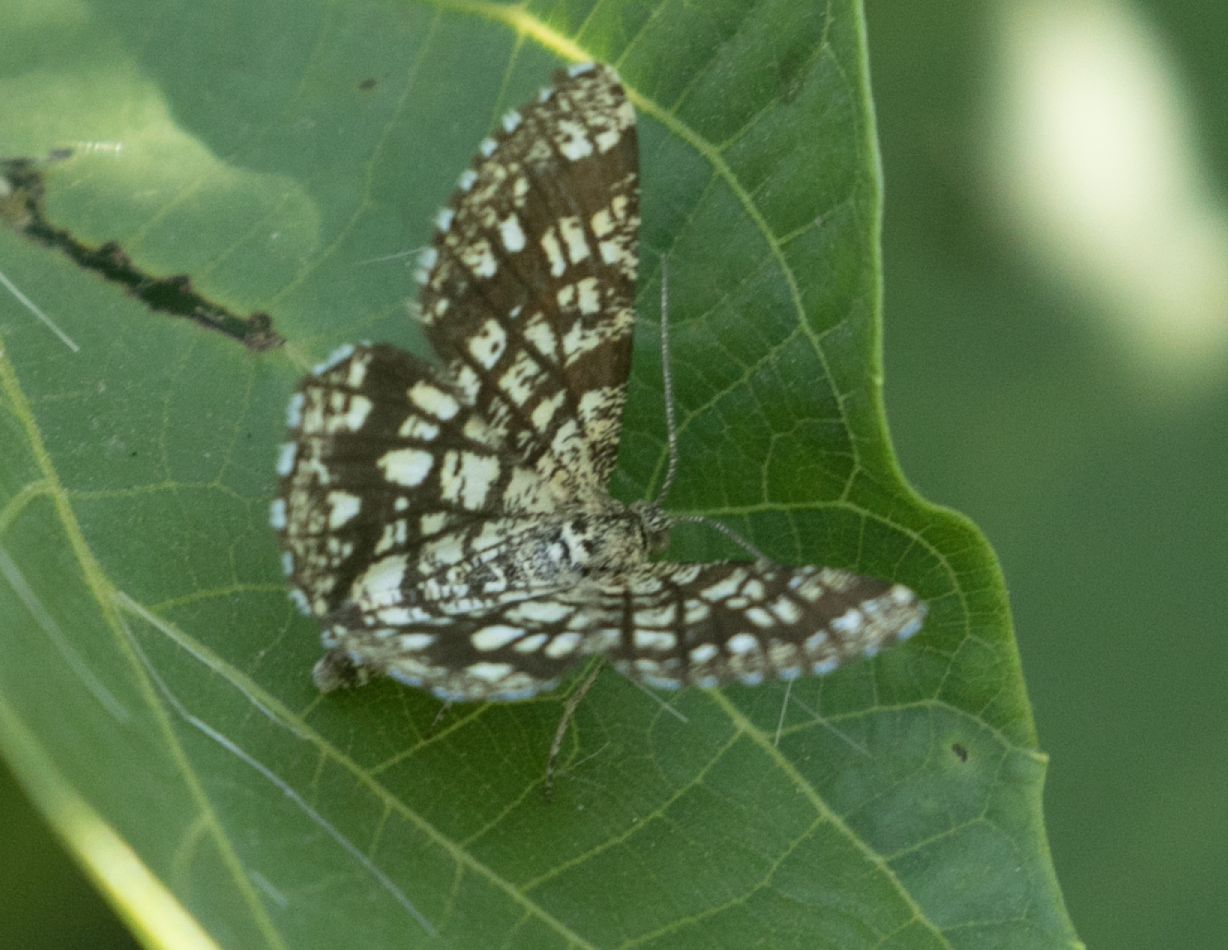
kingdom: Animalia
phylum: Arthropoda
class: Insecta
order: Lepidoptera
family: Geometridae
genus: Chiasmia
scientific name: Chiasmia clathrata
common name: Latticed heath
